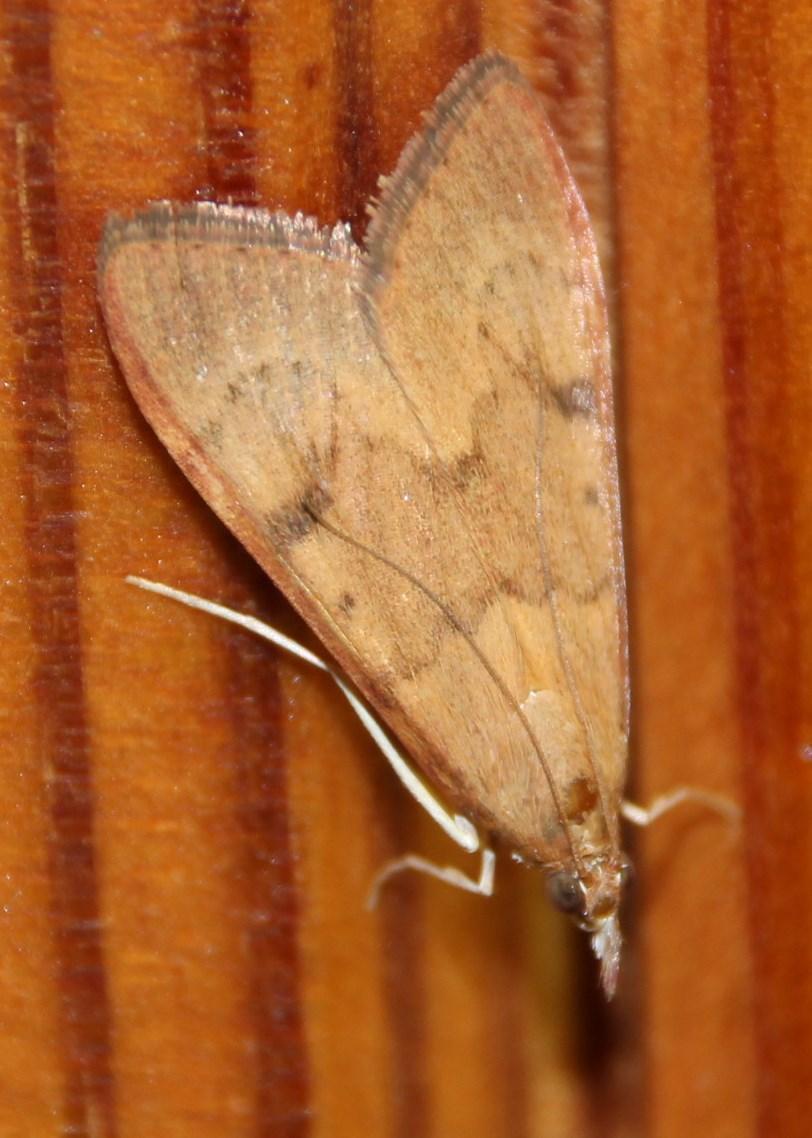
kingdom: Animalia
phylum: Arthropoda
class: Insecta
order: Lepidoptera
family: Crambidae
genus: Uresiphita
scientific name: Uresiphita gilvata
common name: Yellow-underwing pearl
